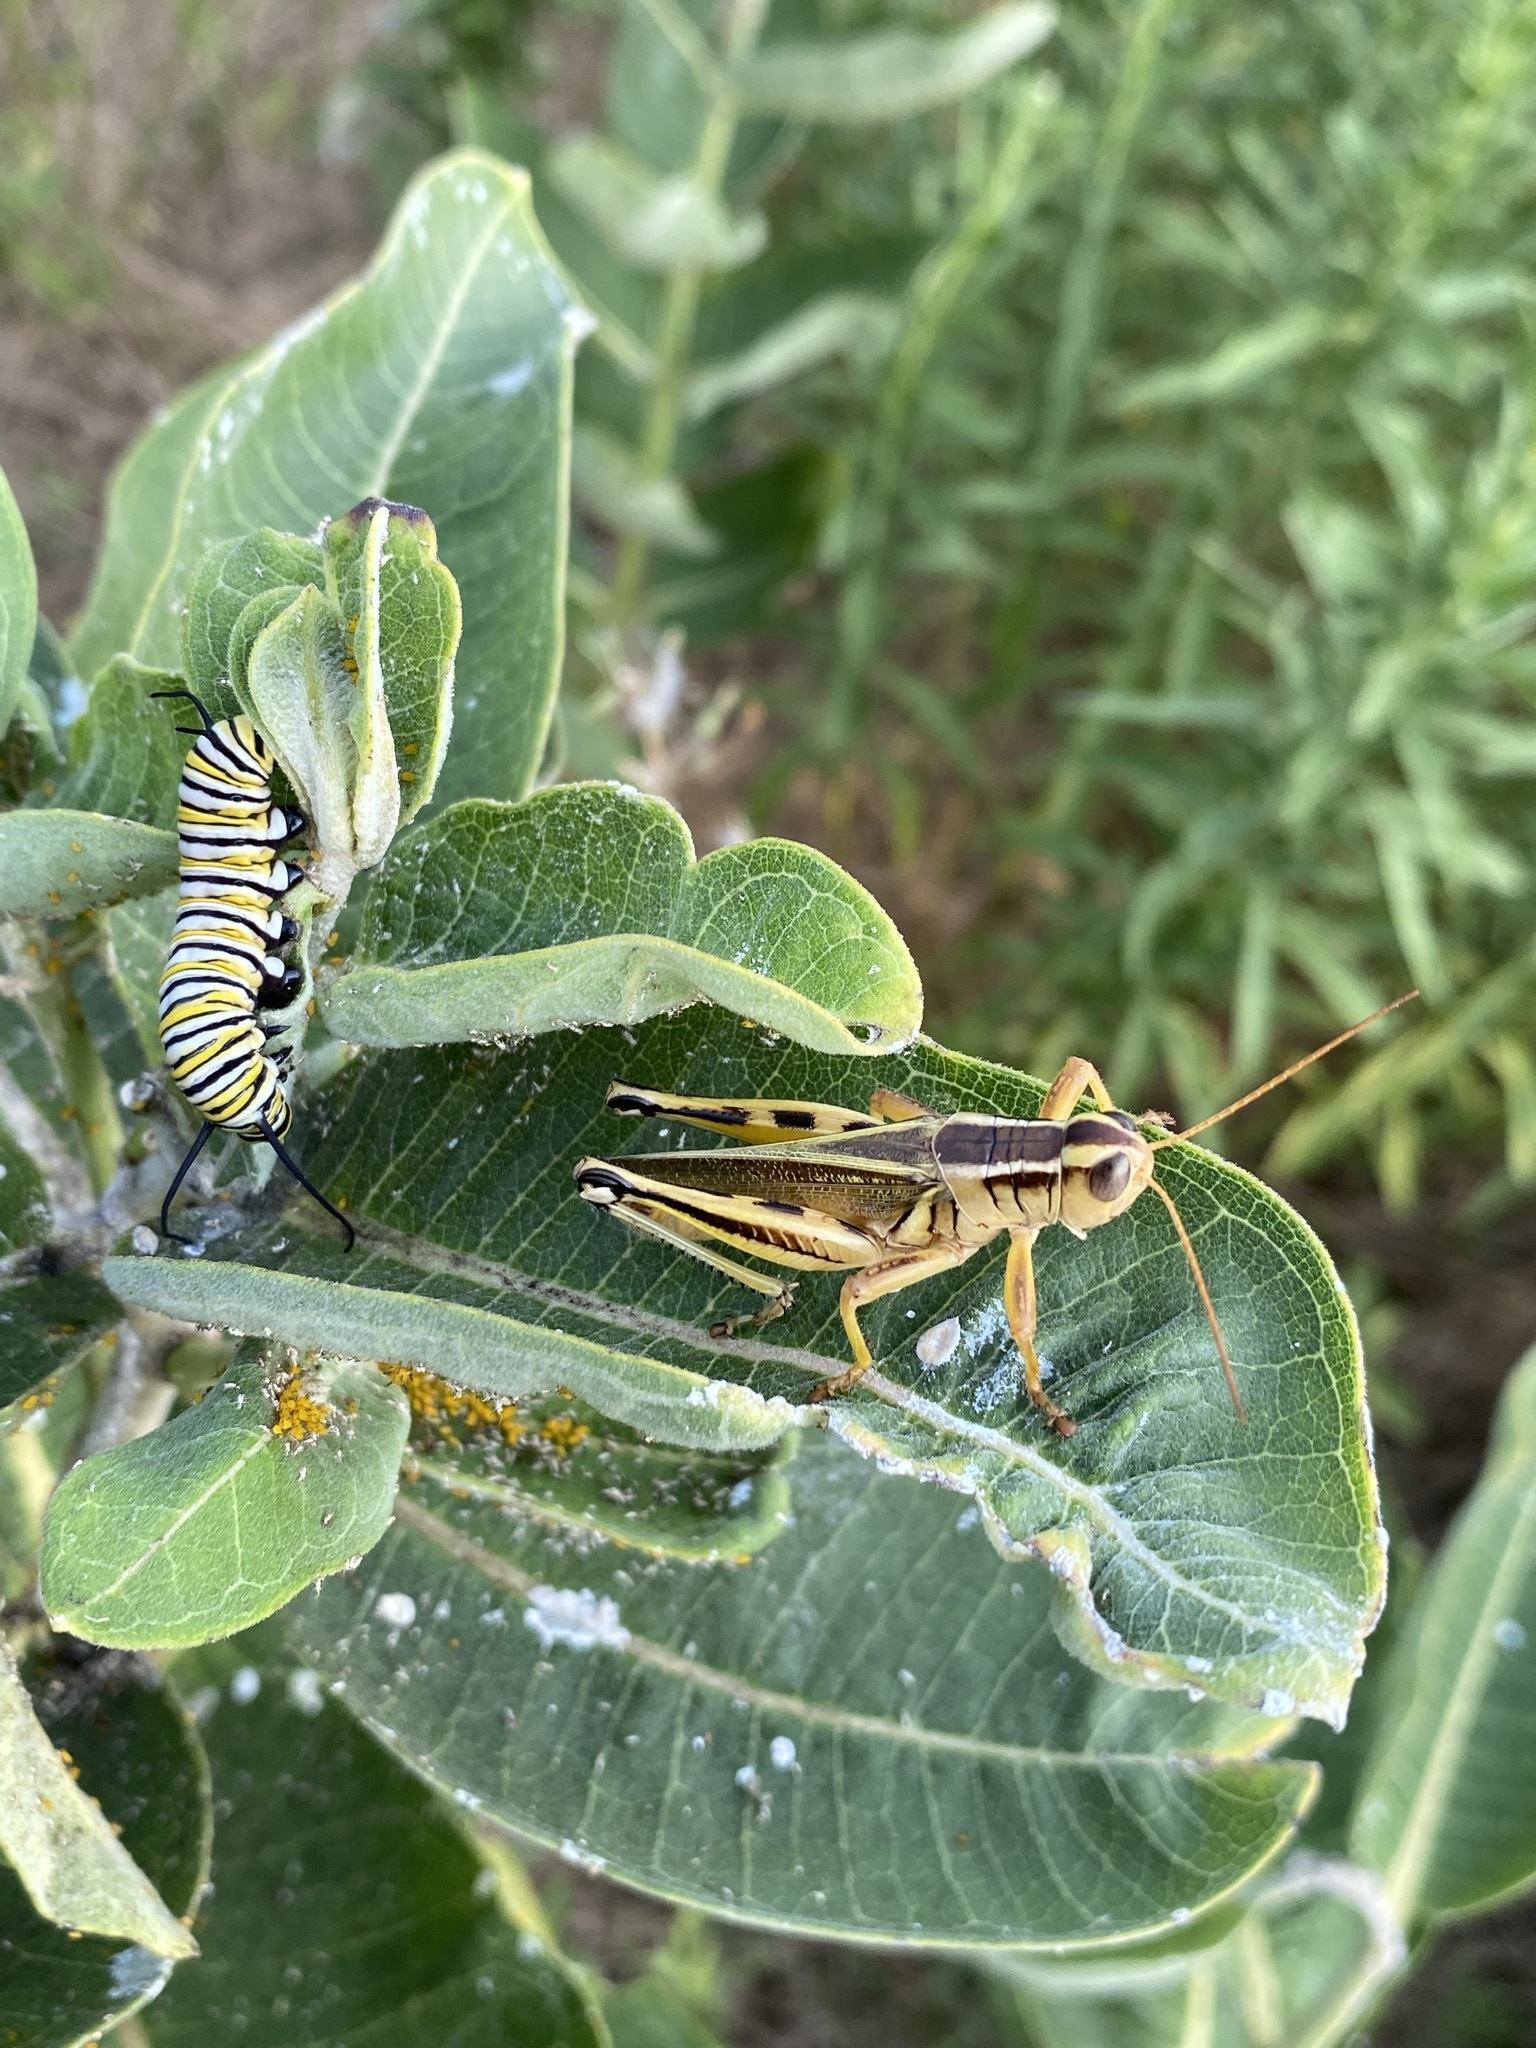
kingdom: Animalia
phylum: Arthropoda
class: Insecta
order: Orthoptera
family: Acrididae
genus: Melanoplus
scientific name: Melanoplus bivittatus
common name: Two-striped grasshopper
